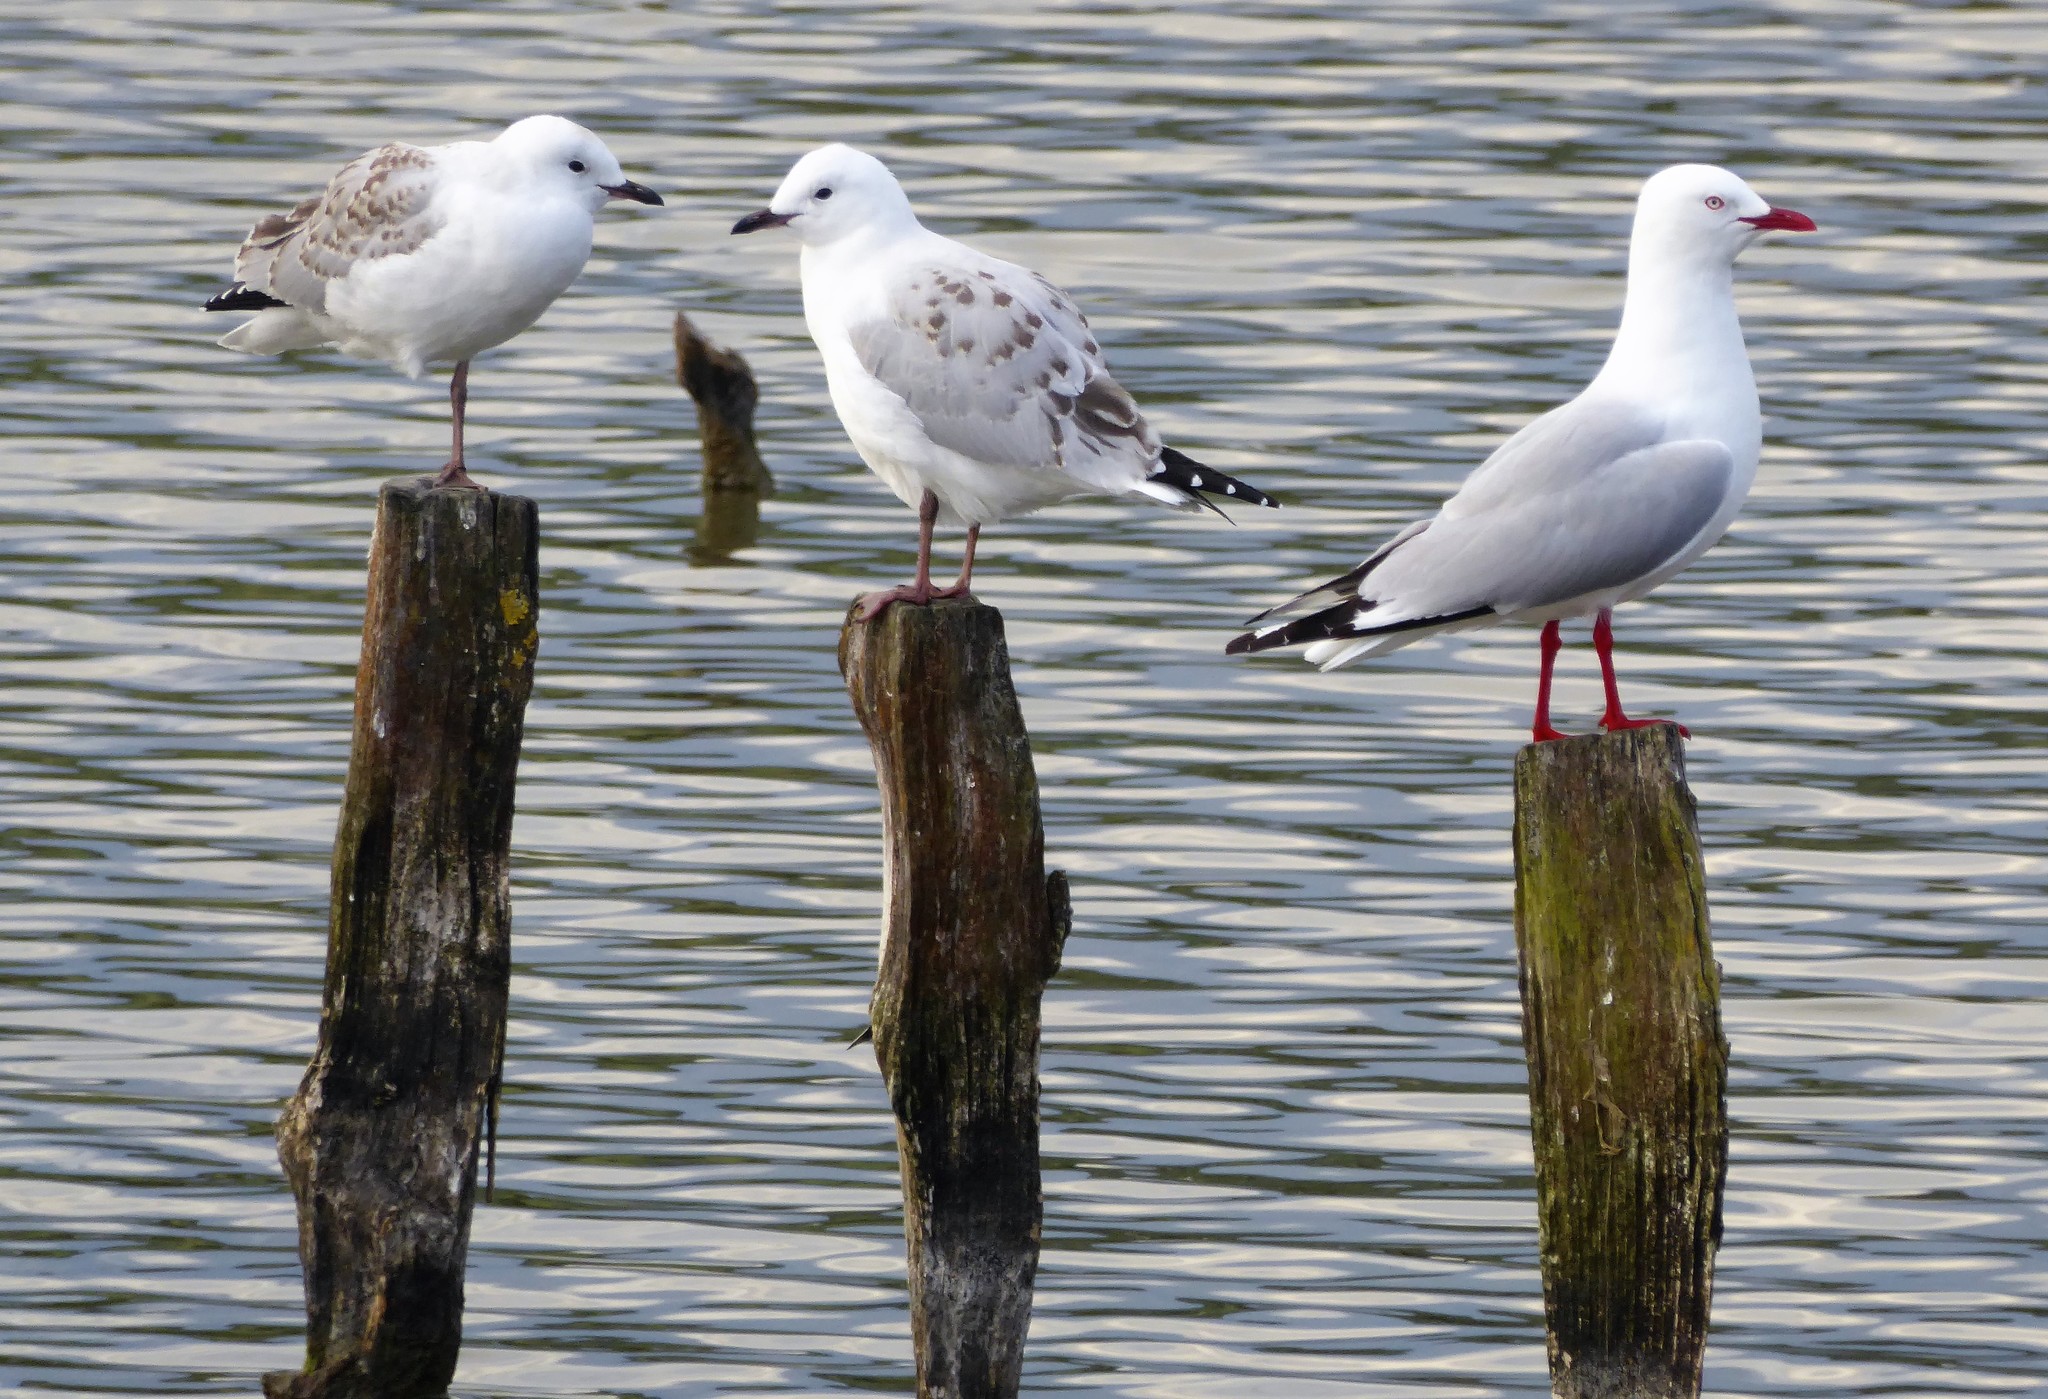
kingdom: Animalia
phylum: Chordata
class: Aves
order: Charadriiformes
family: Laridae
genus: Chroicocephalus
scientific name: Chroicocephalus novaehollandiae
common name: Silver gull
